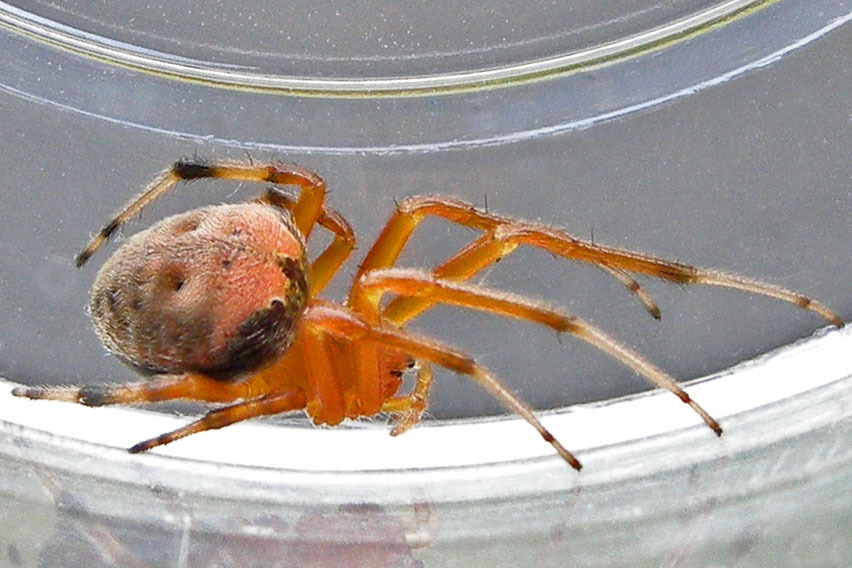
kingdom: Animalia
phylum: Arthropoda
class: Arachnida
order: Araneae
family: Araneidae
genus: Araneus
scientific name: Araneus thaddeus
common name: Lattice orbweaver
